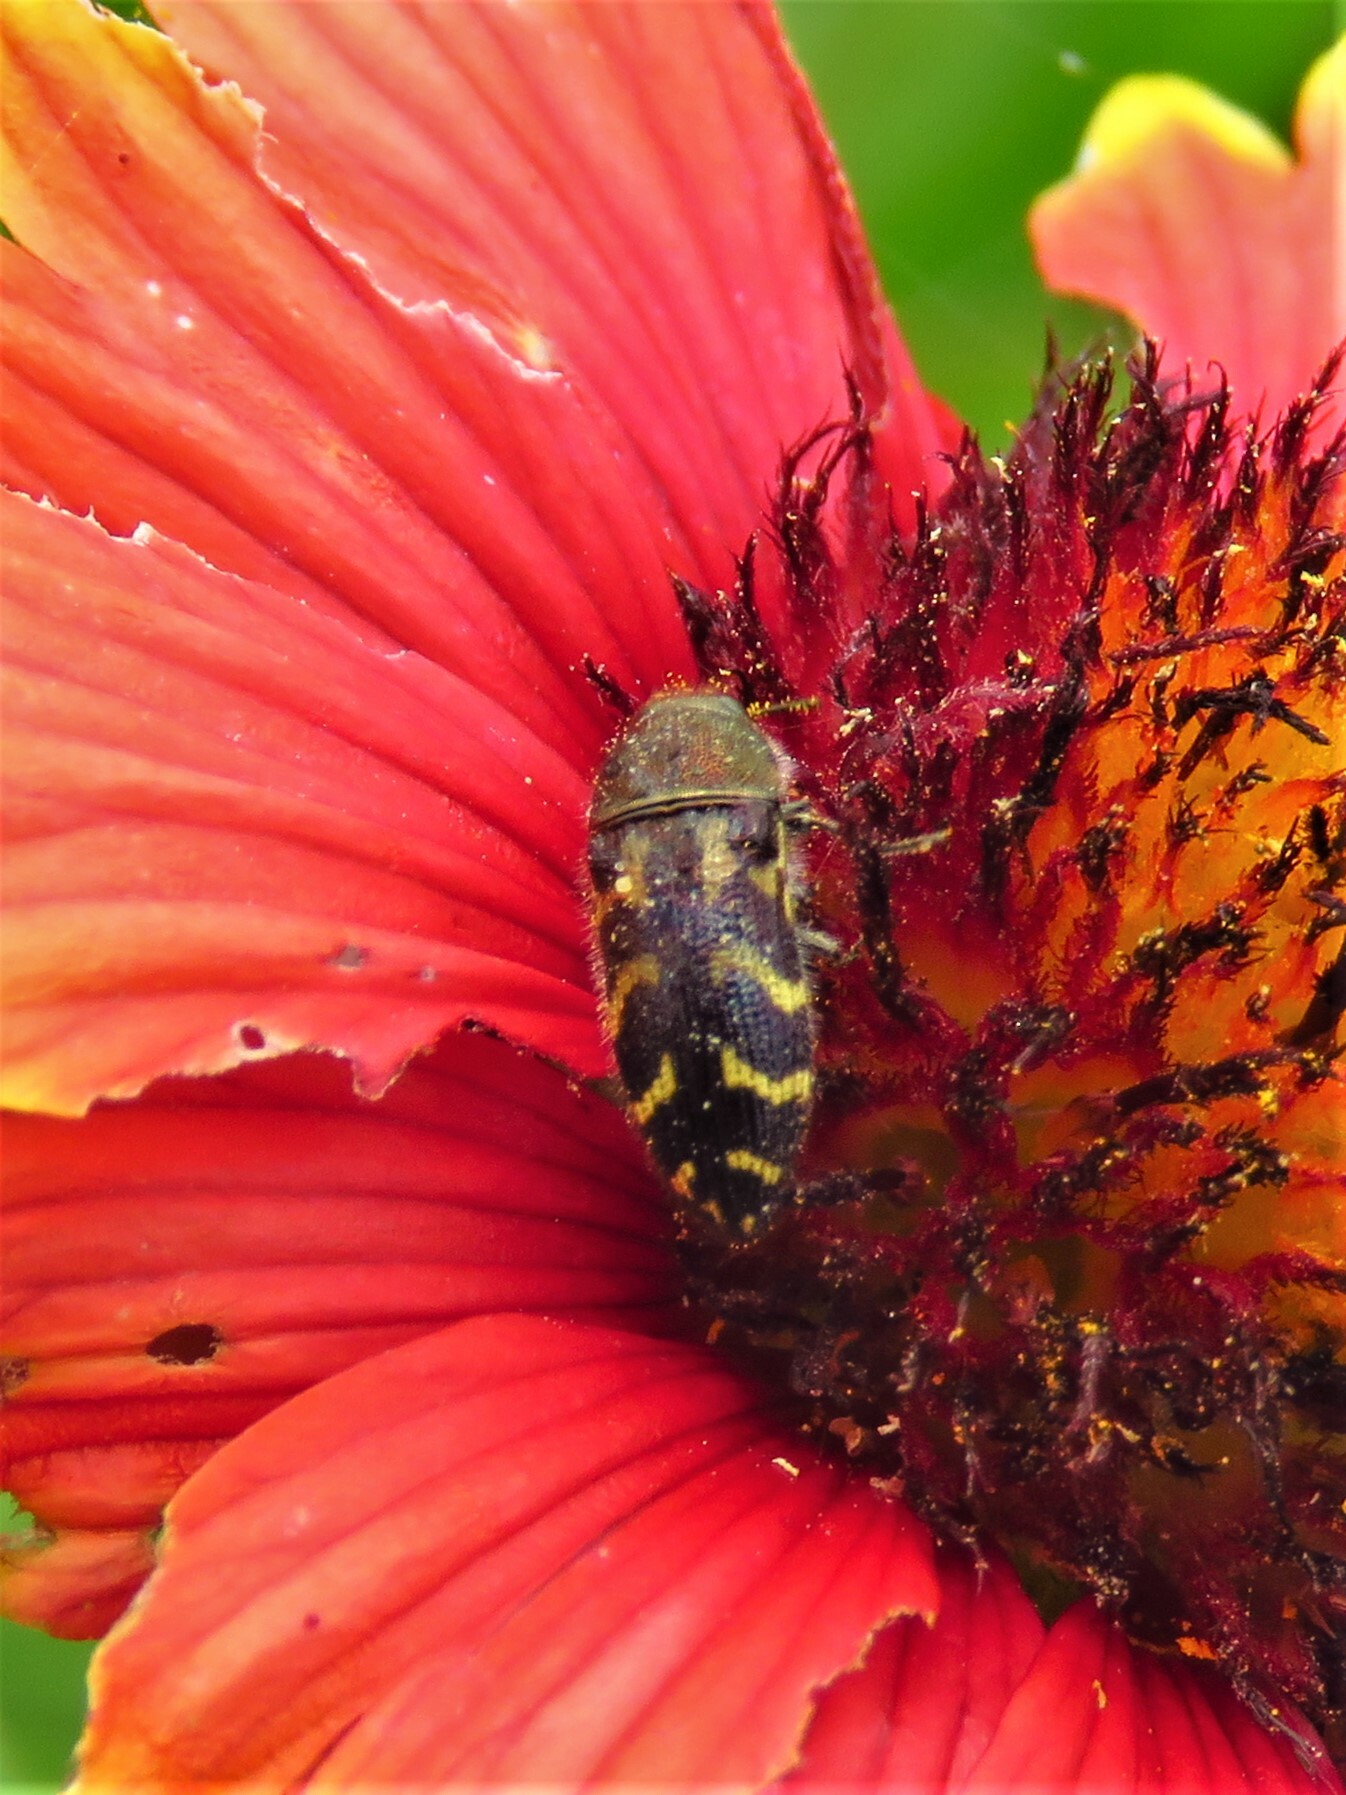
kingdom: Animalia
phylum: Arthropoda
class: Insecta
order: Coleoptera
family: Buprestidae
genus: Acmaeodera
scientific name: Acmaeodera mixta
